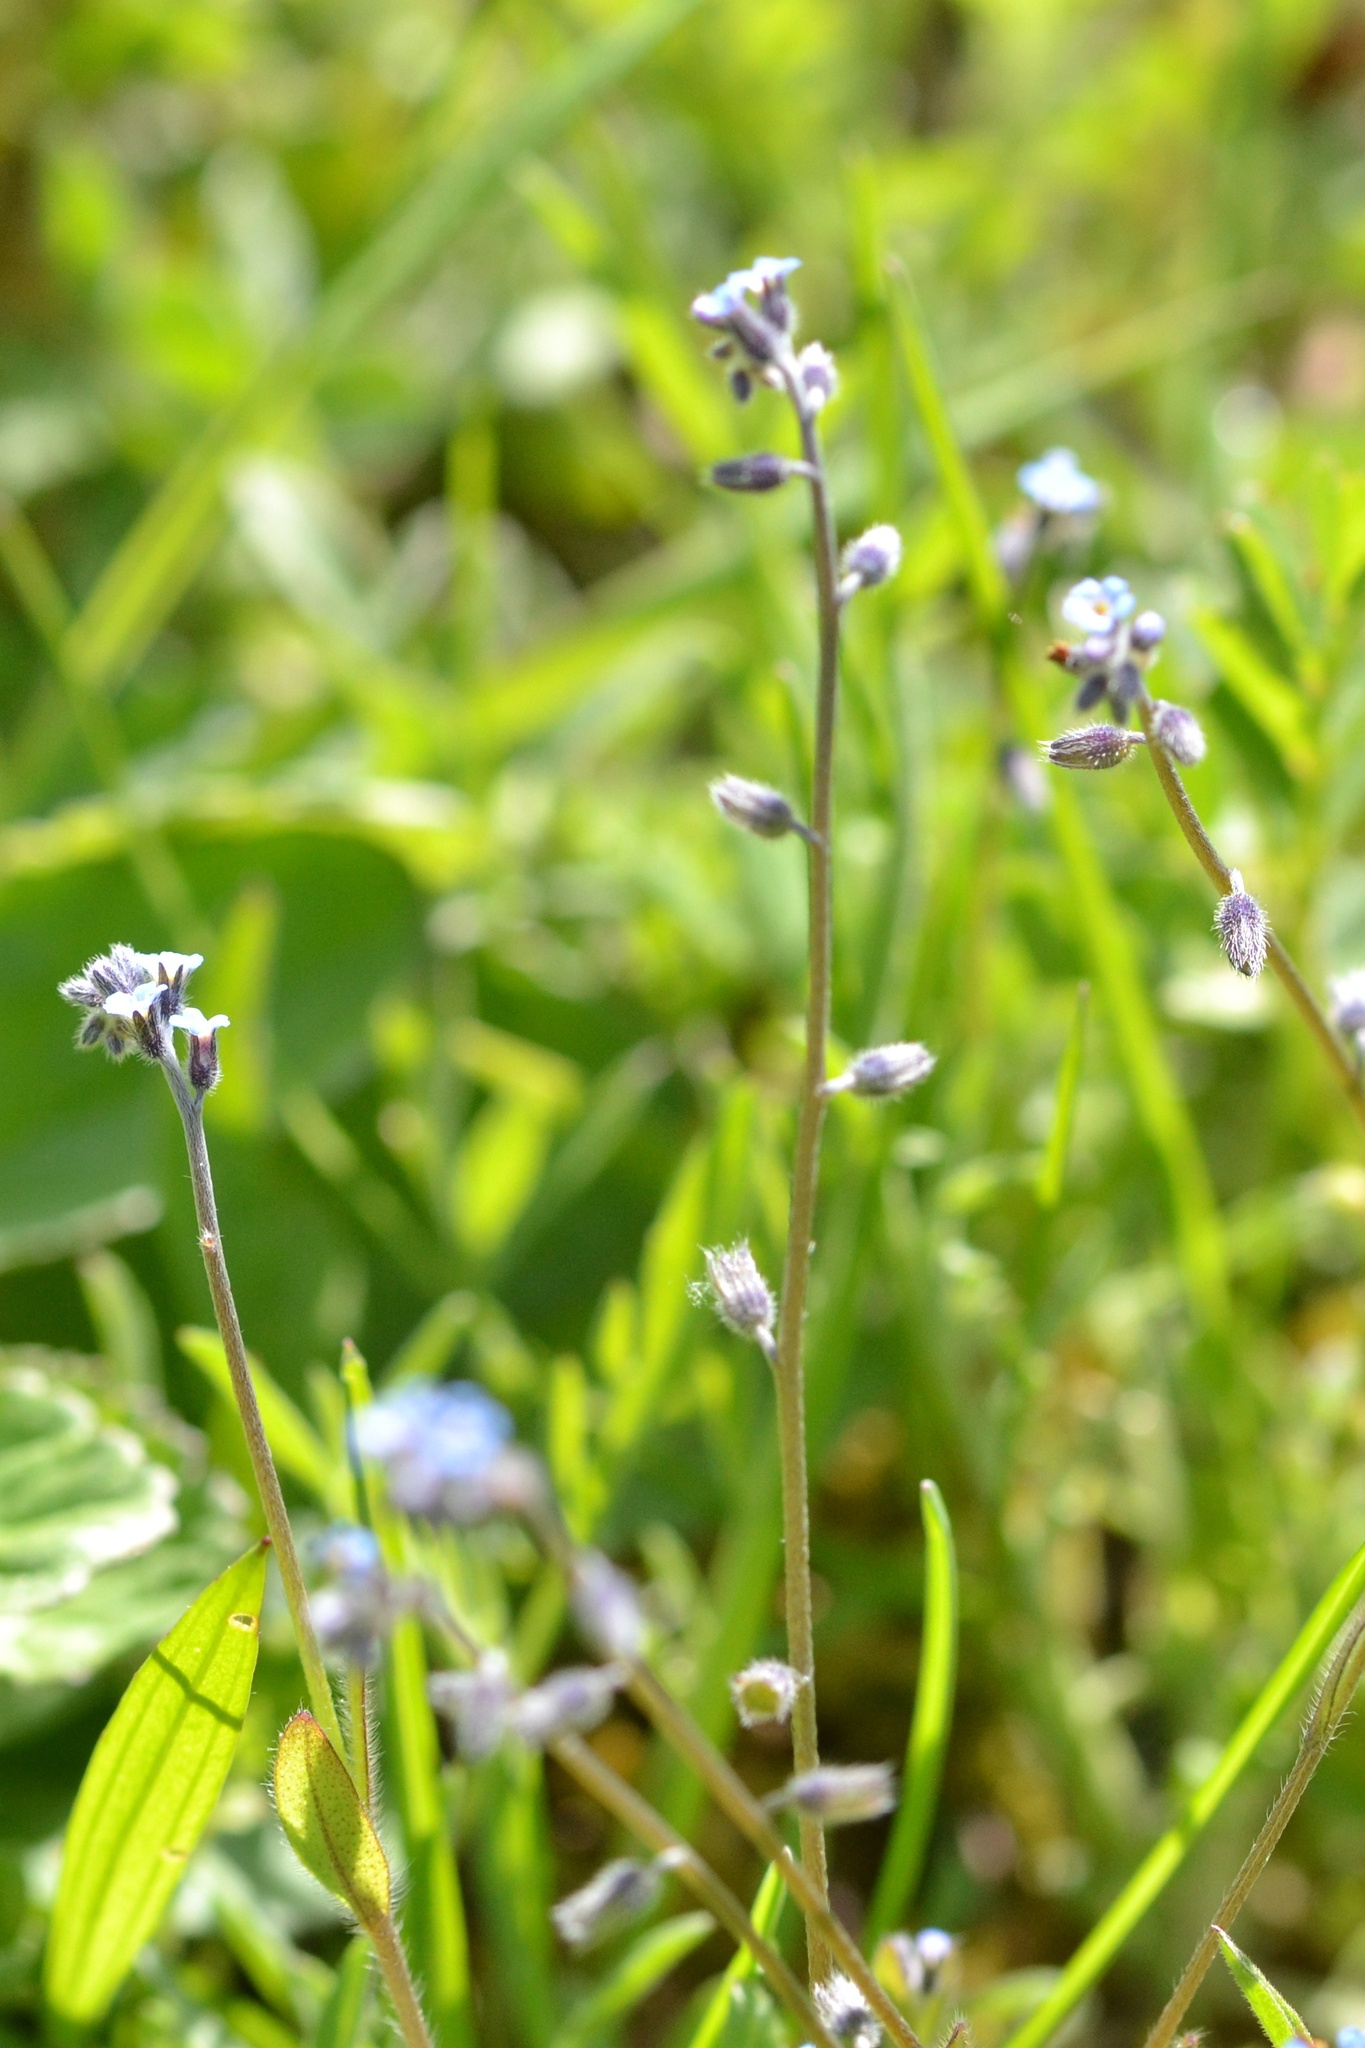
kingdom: Plantae
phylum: Tracheophyta
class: Magnoliopsida
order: Boraginales
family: Boraginaceae
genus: Myosotis
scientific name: Myosotis ramosissima
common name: Early forget-me-not
